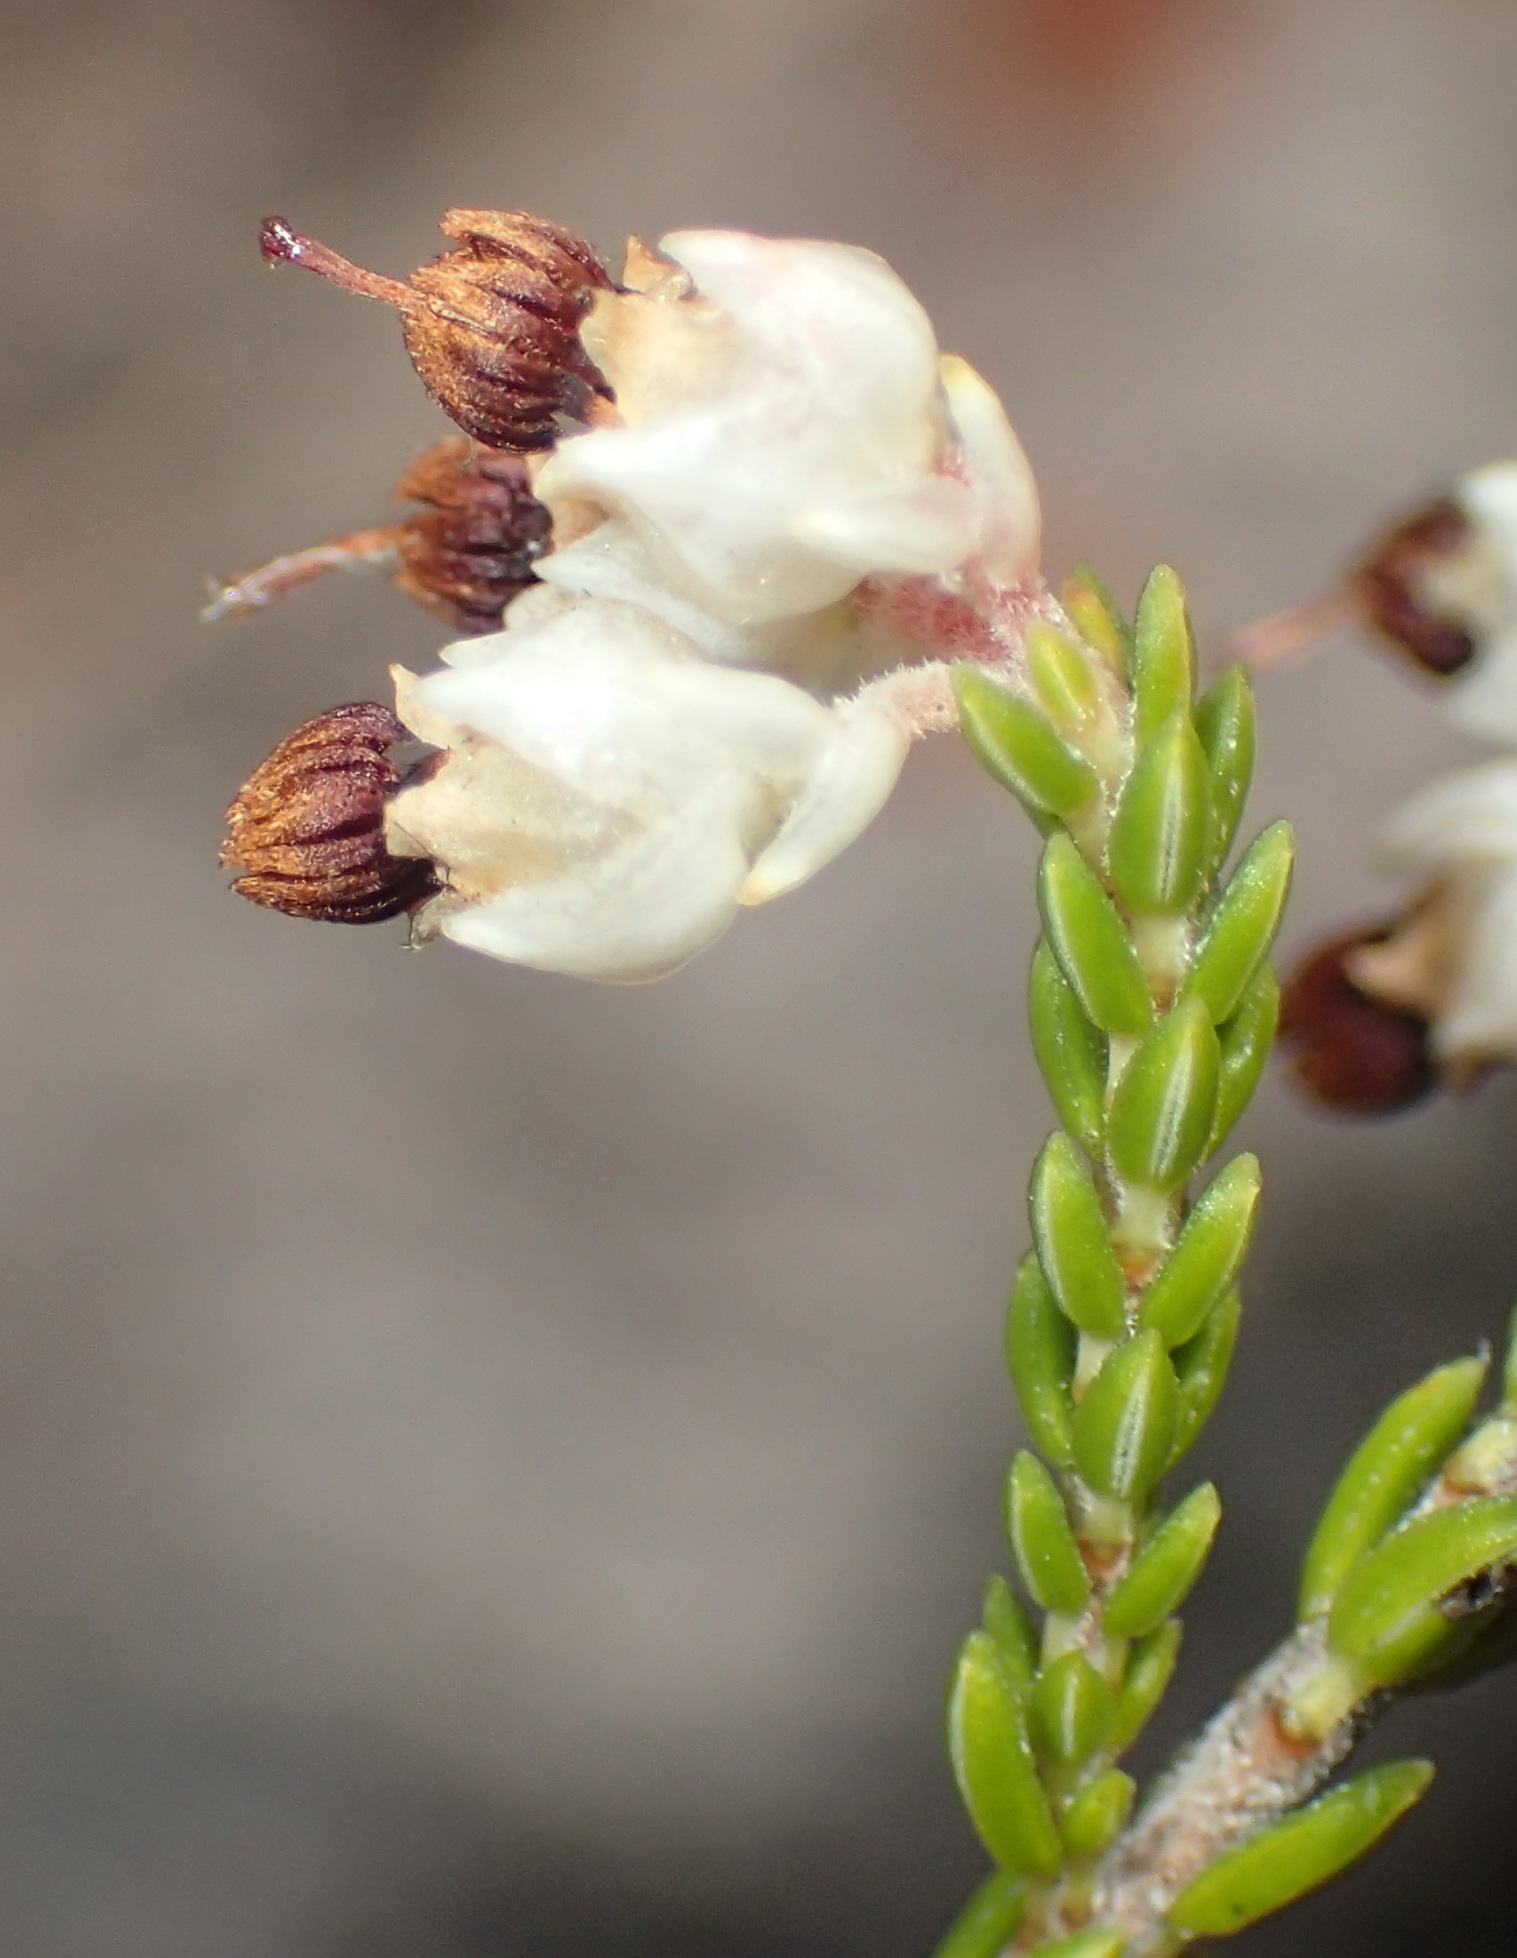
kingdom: Plantae
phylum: Tracheophyta
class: Magnoliopsida
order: Ericales
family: Ericaceae
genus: Erica
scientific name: Erica triceps
